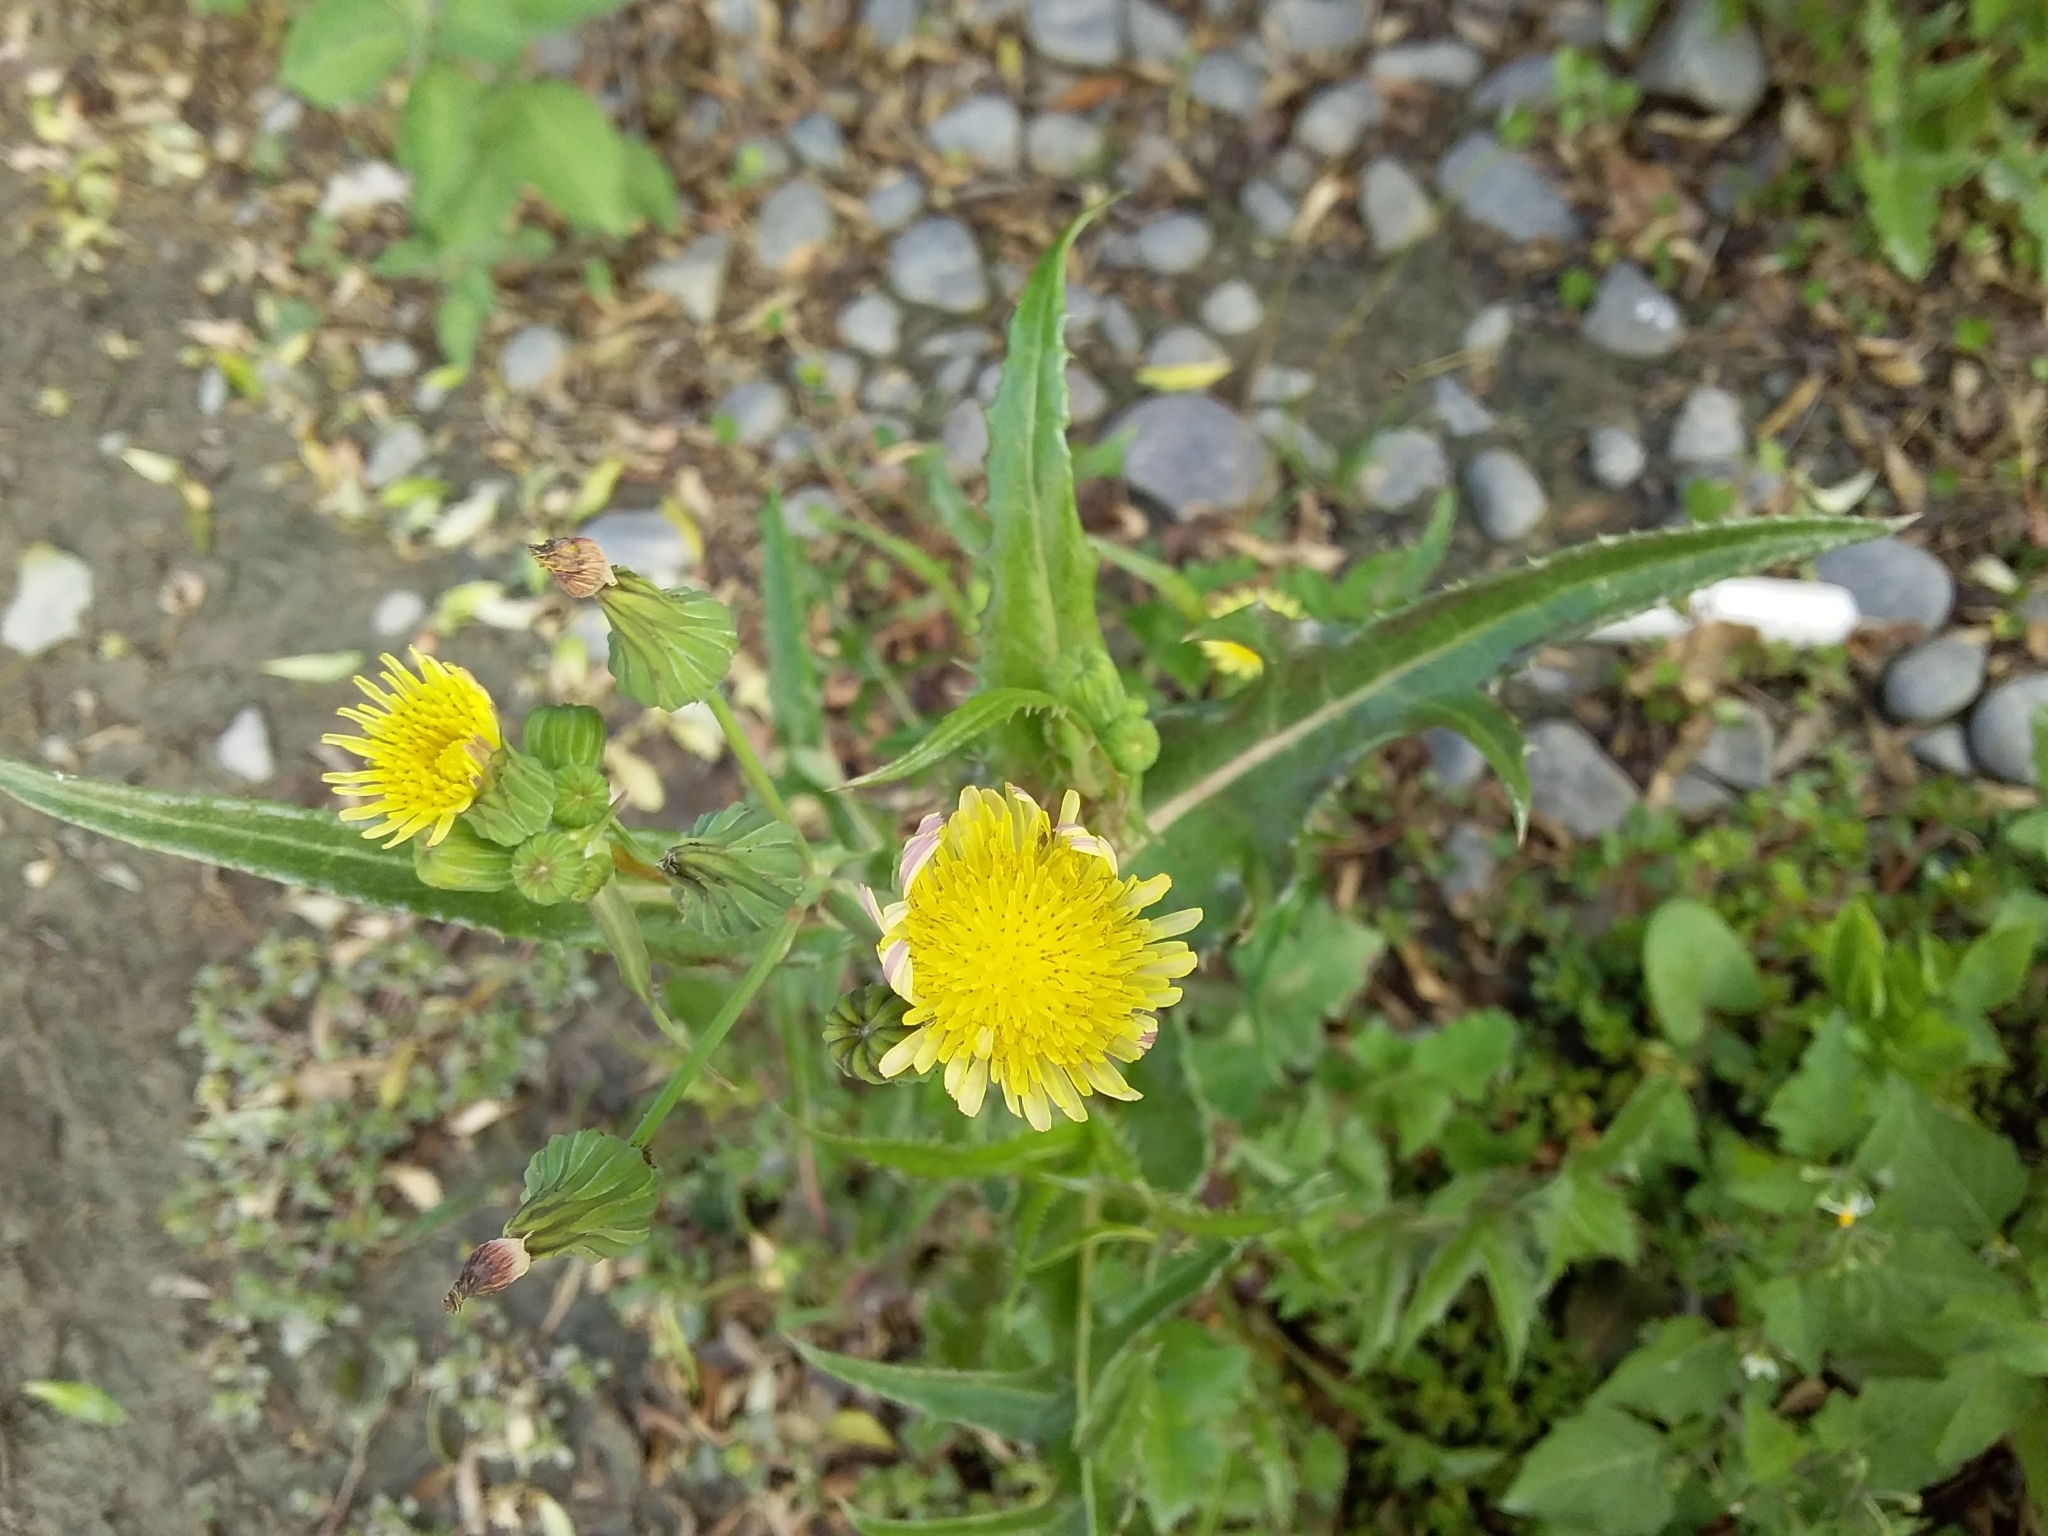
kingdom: Plantae
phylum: Tracheophyta
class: Magnoliopsida
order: Asterales
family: Asteraceae
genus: Sonchus
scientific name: Sonchus asper
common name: Prickly sow-thistle
